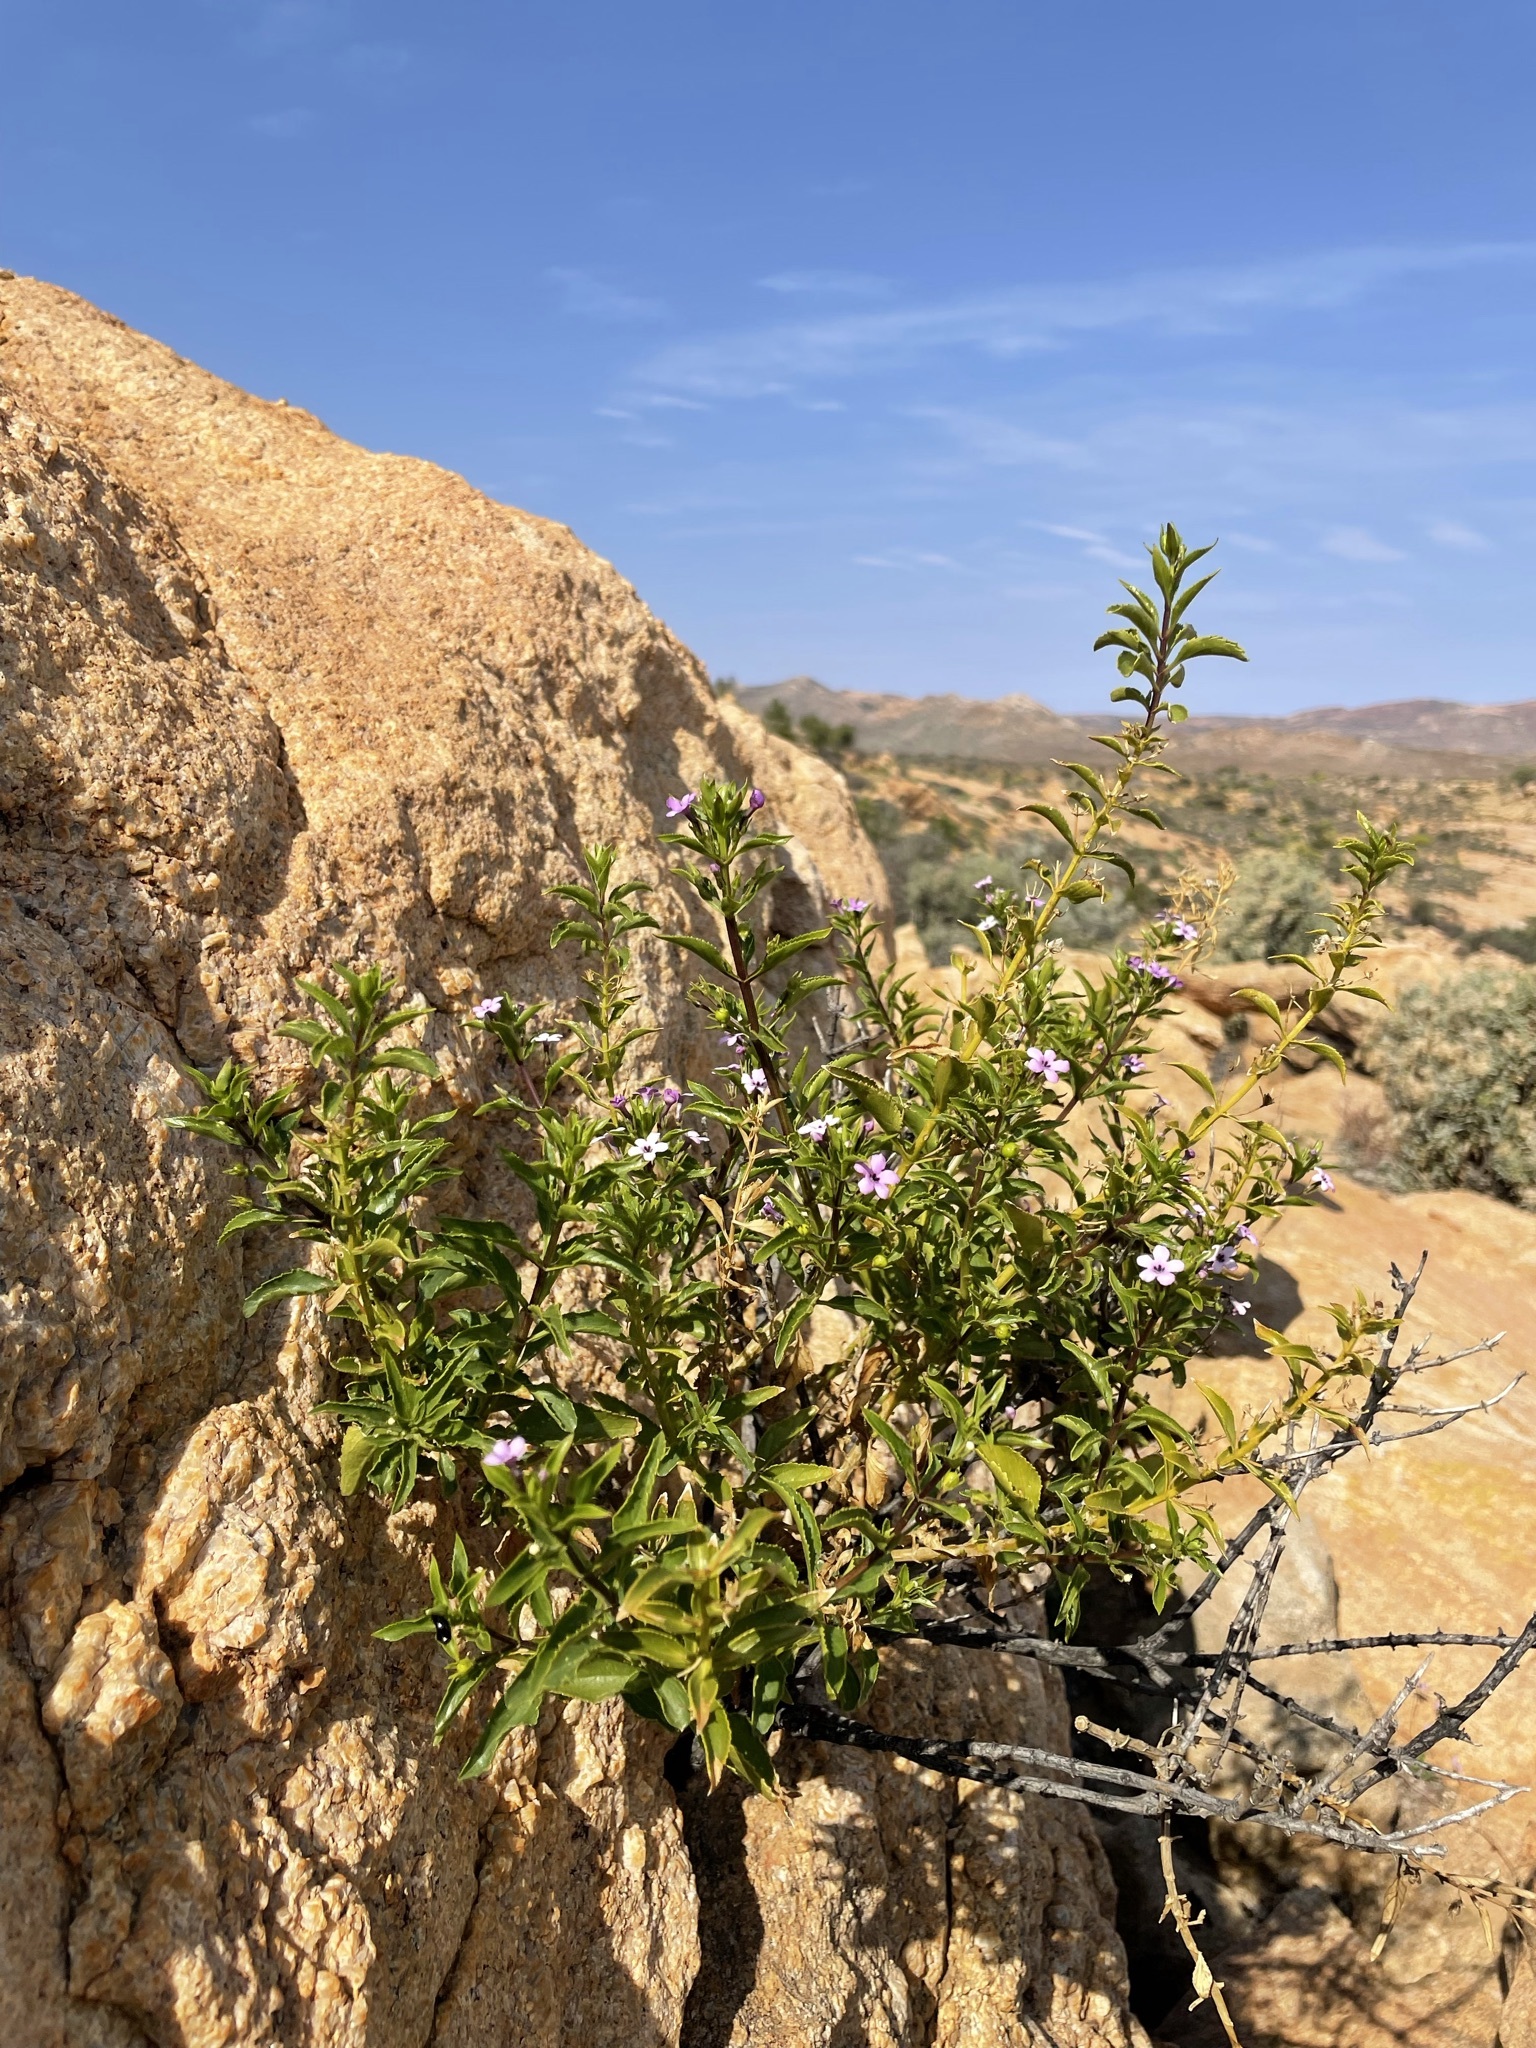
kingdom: Plantae
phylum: Tracheophyta
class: Magnoliopsida
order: Lamiales
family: Scrophulariaceae
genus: Teedia
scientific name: Teedia lucida
